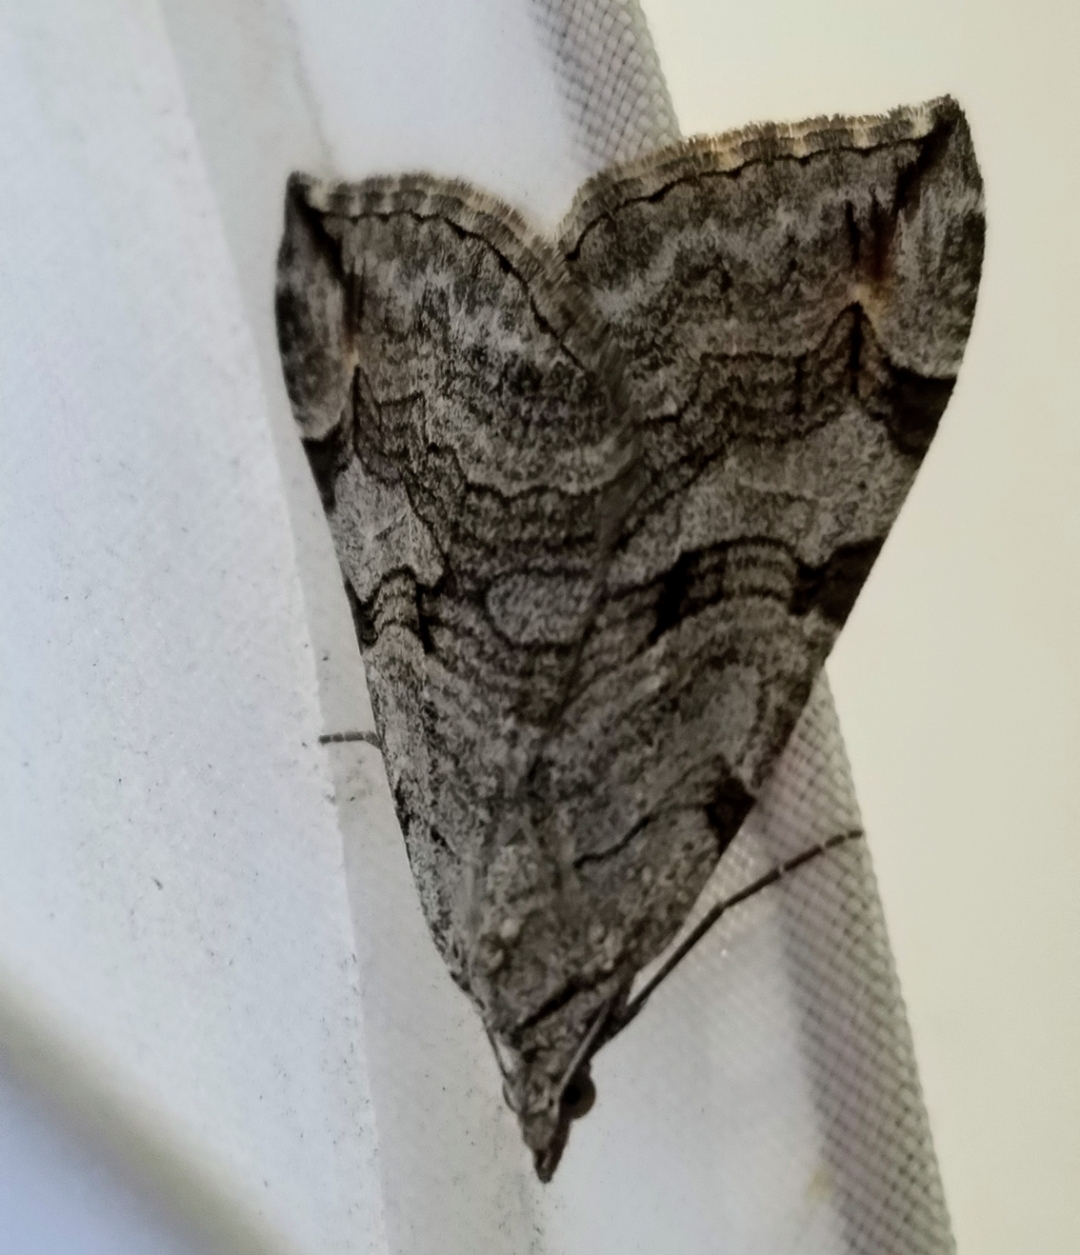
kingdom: Animalia
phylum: Arthropoda
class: Insecta
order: Lepidoptera
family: Geometridae
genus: Aplocera
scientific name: Aplocera plagiata
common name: Treble-bar
